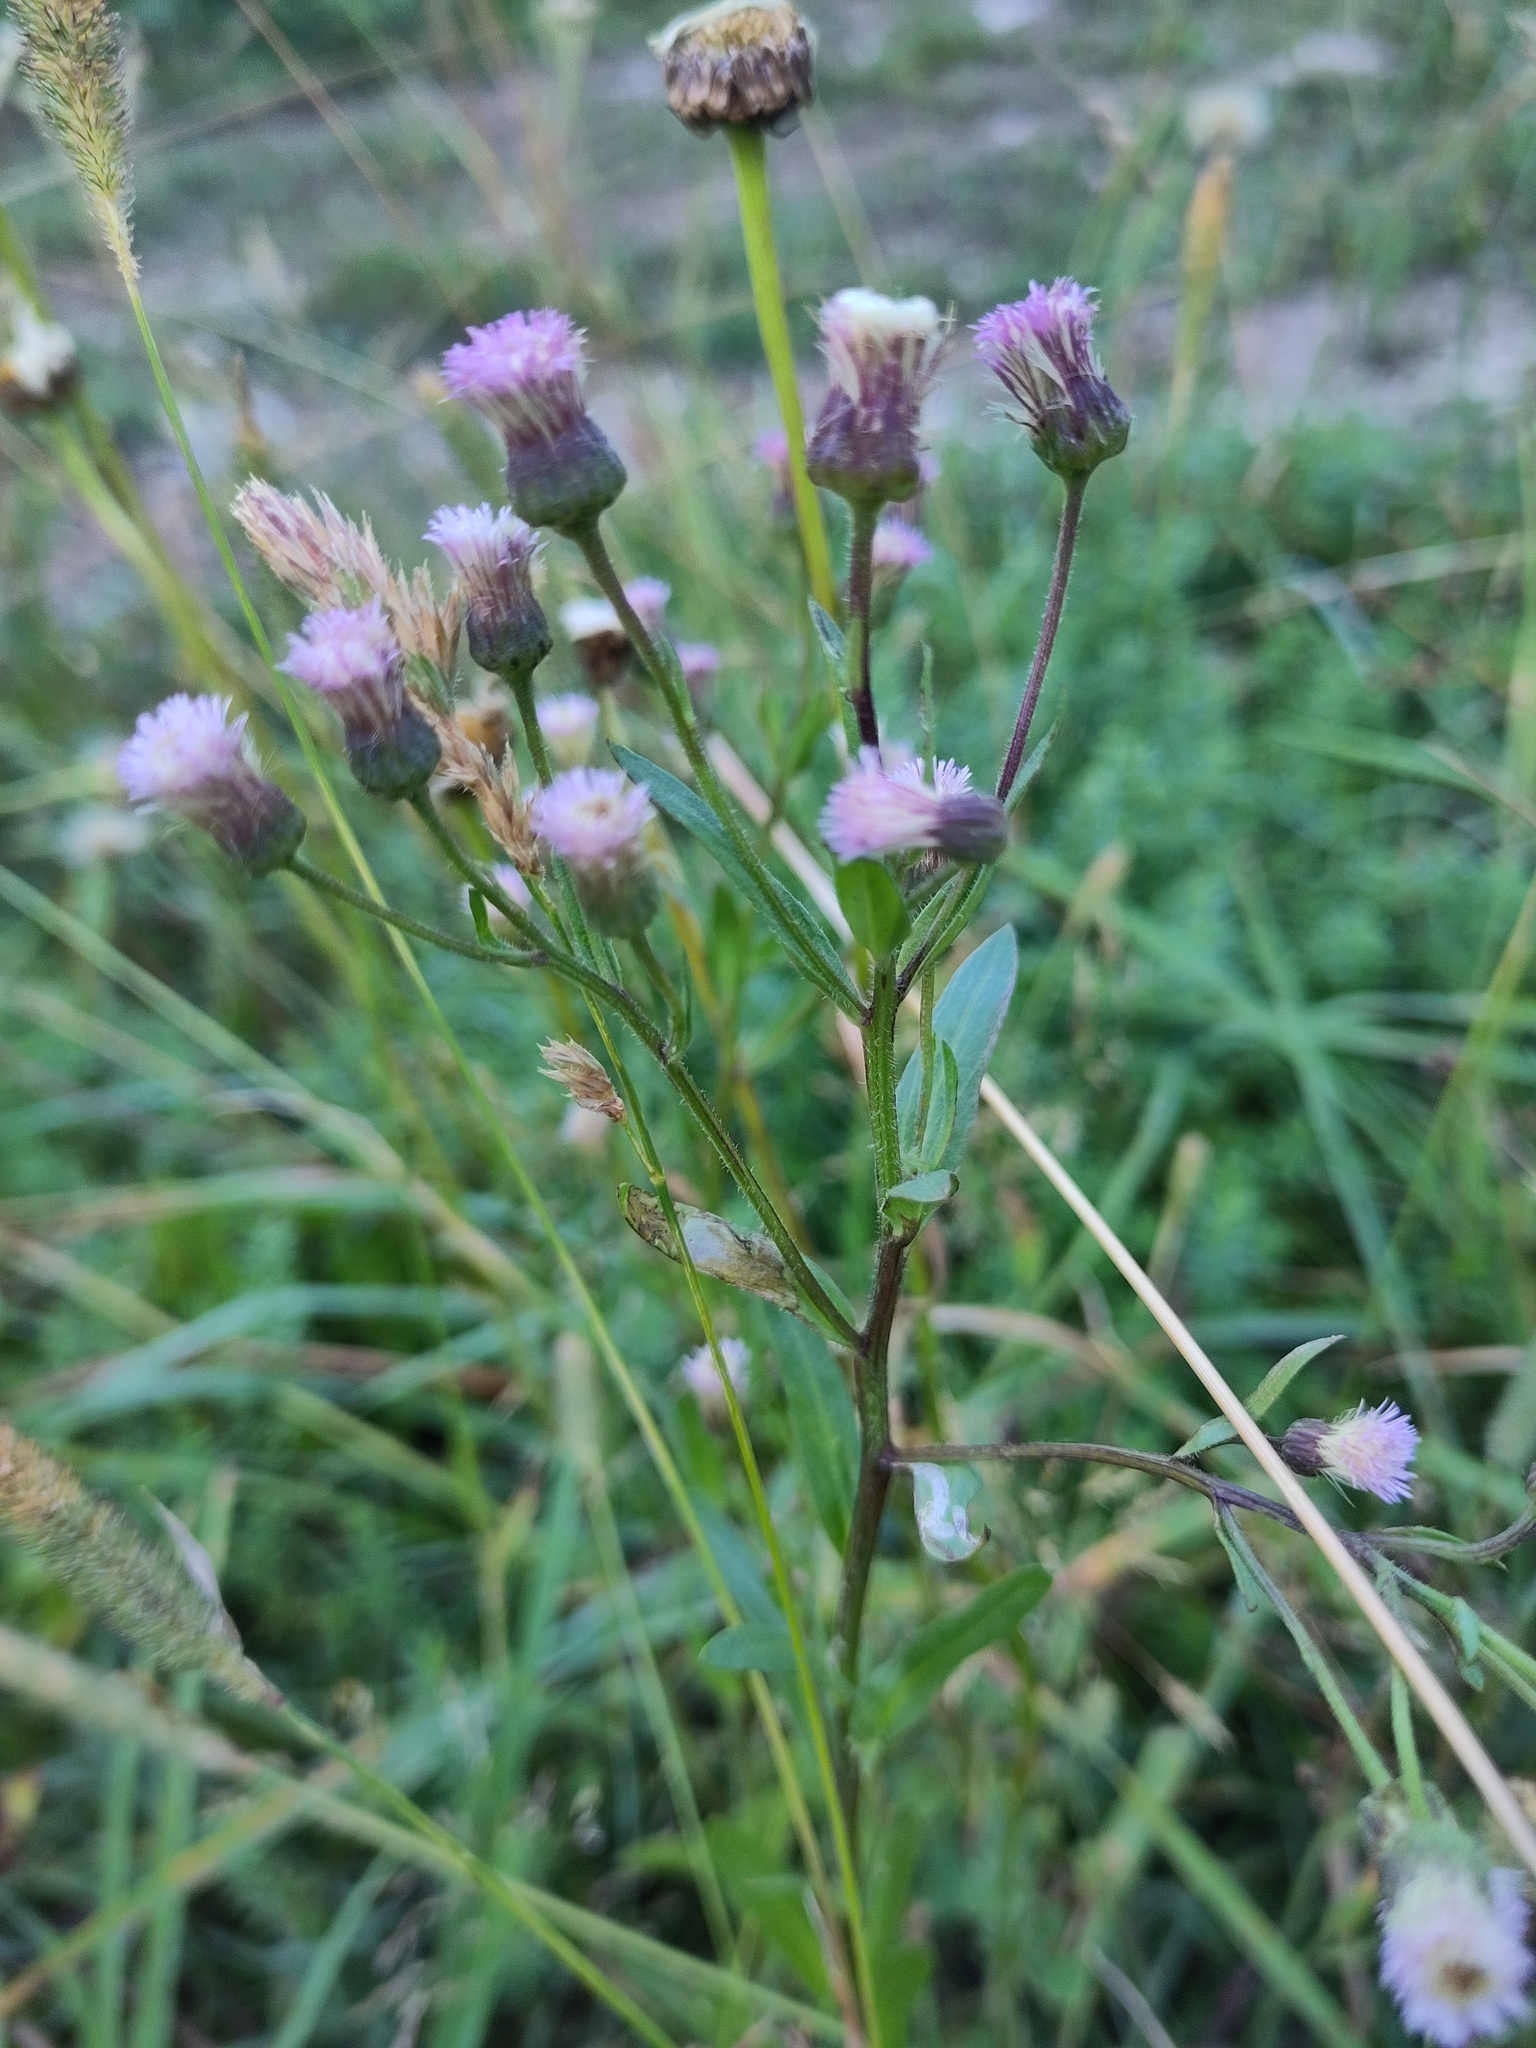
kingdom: Plantae
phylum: Tracheophyta
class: Magnoliopsida
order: Asterales
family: Asteraceae
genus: Erigeron
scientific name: Erigeron acris
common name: Blue fleabane
